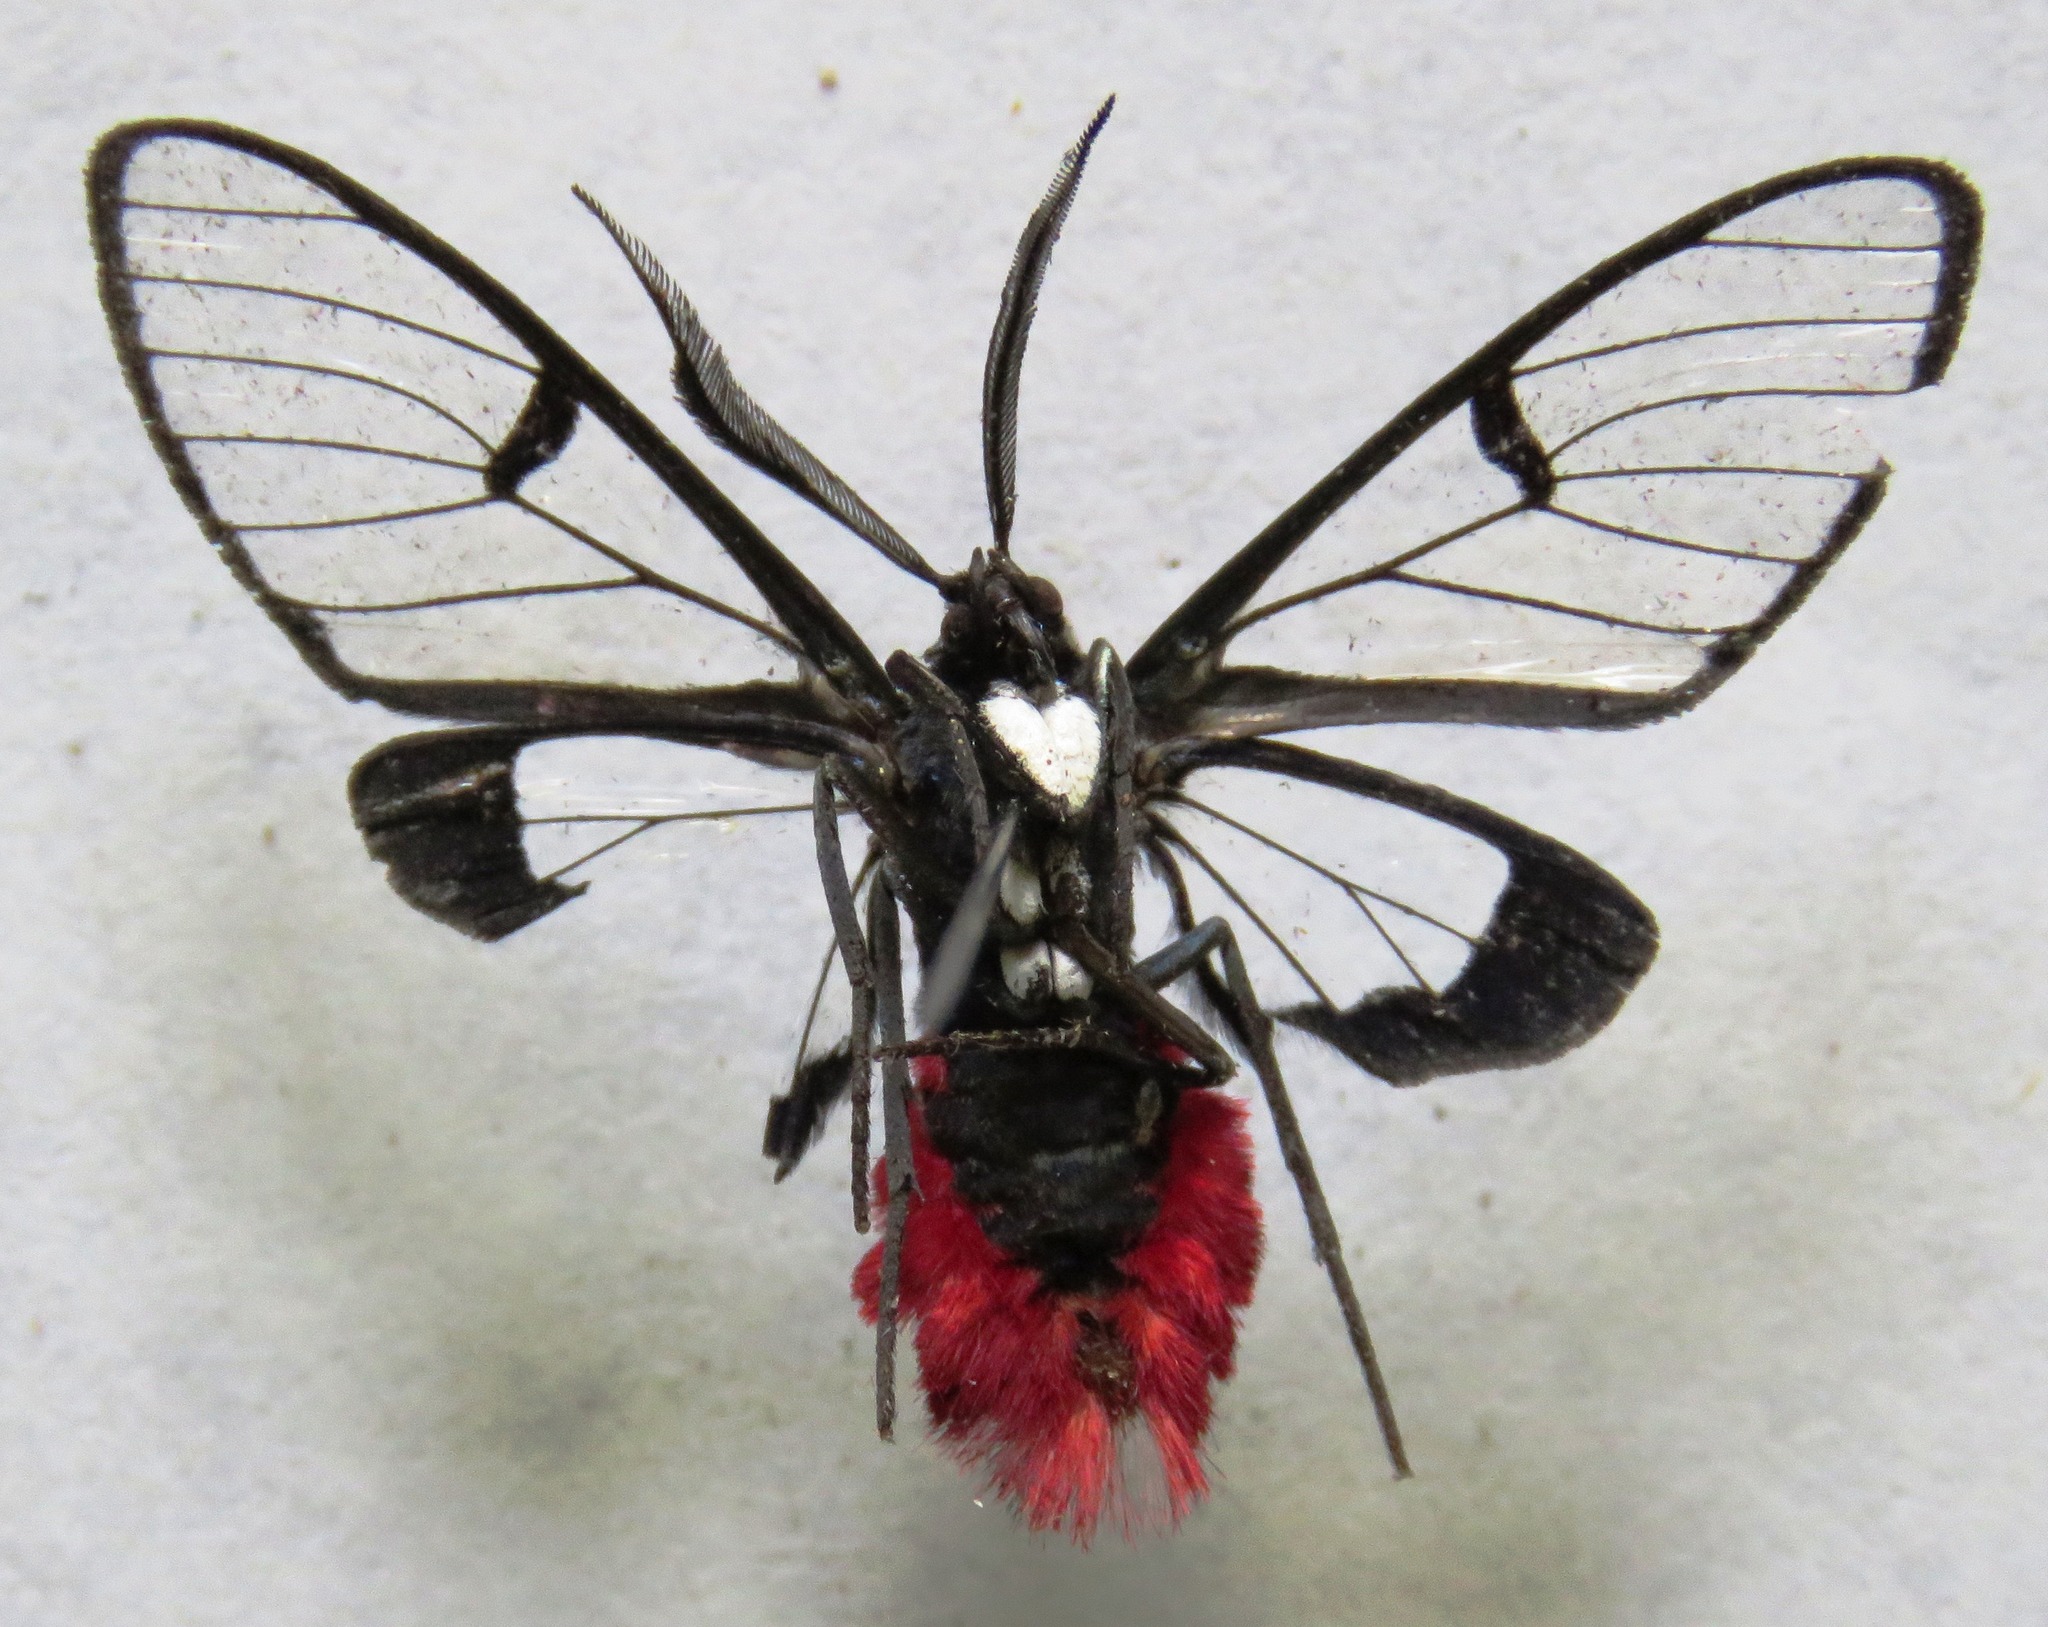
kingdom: Animalia
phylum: Arthropoda
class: Insecta
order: Lepidoptera
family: Erebidae
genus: Dinia
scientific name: Dinia eagrus
